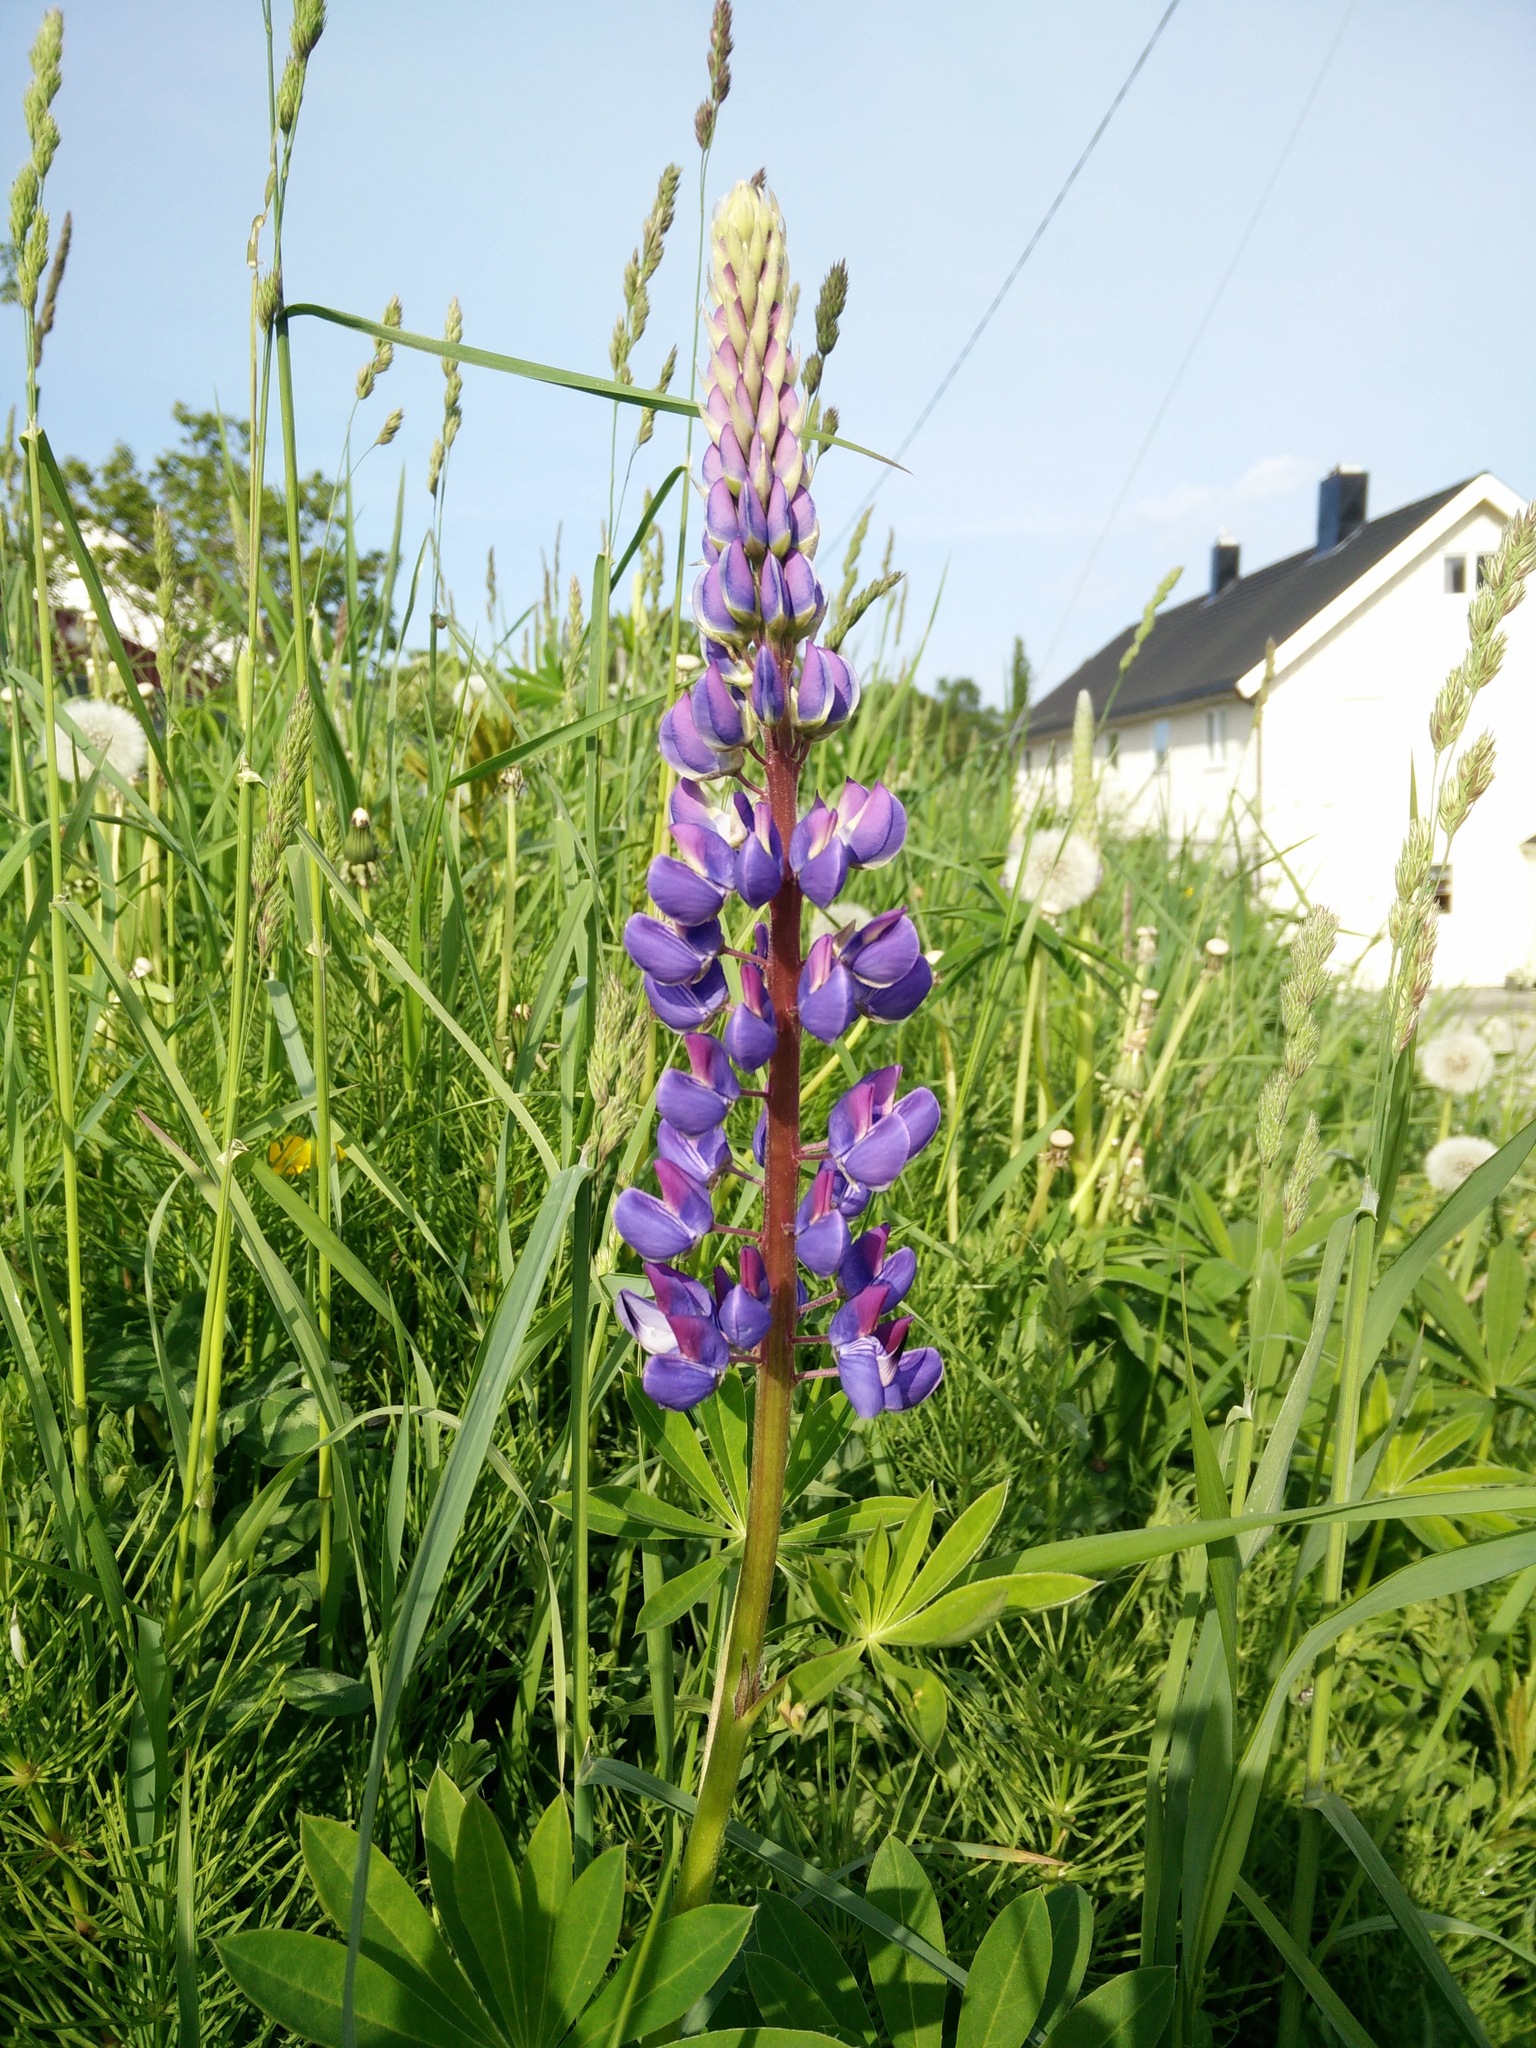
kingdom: Plantae
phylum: Tracheophyta
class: Magnoliopsida
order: Fabales
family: Fabaceae
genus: Lupinus
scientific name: Lupinus polyphyllus
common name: Garden lupin
